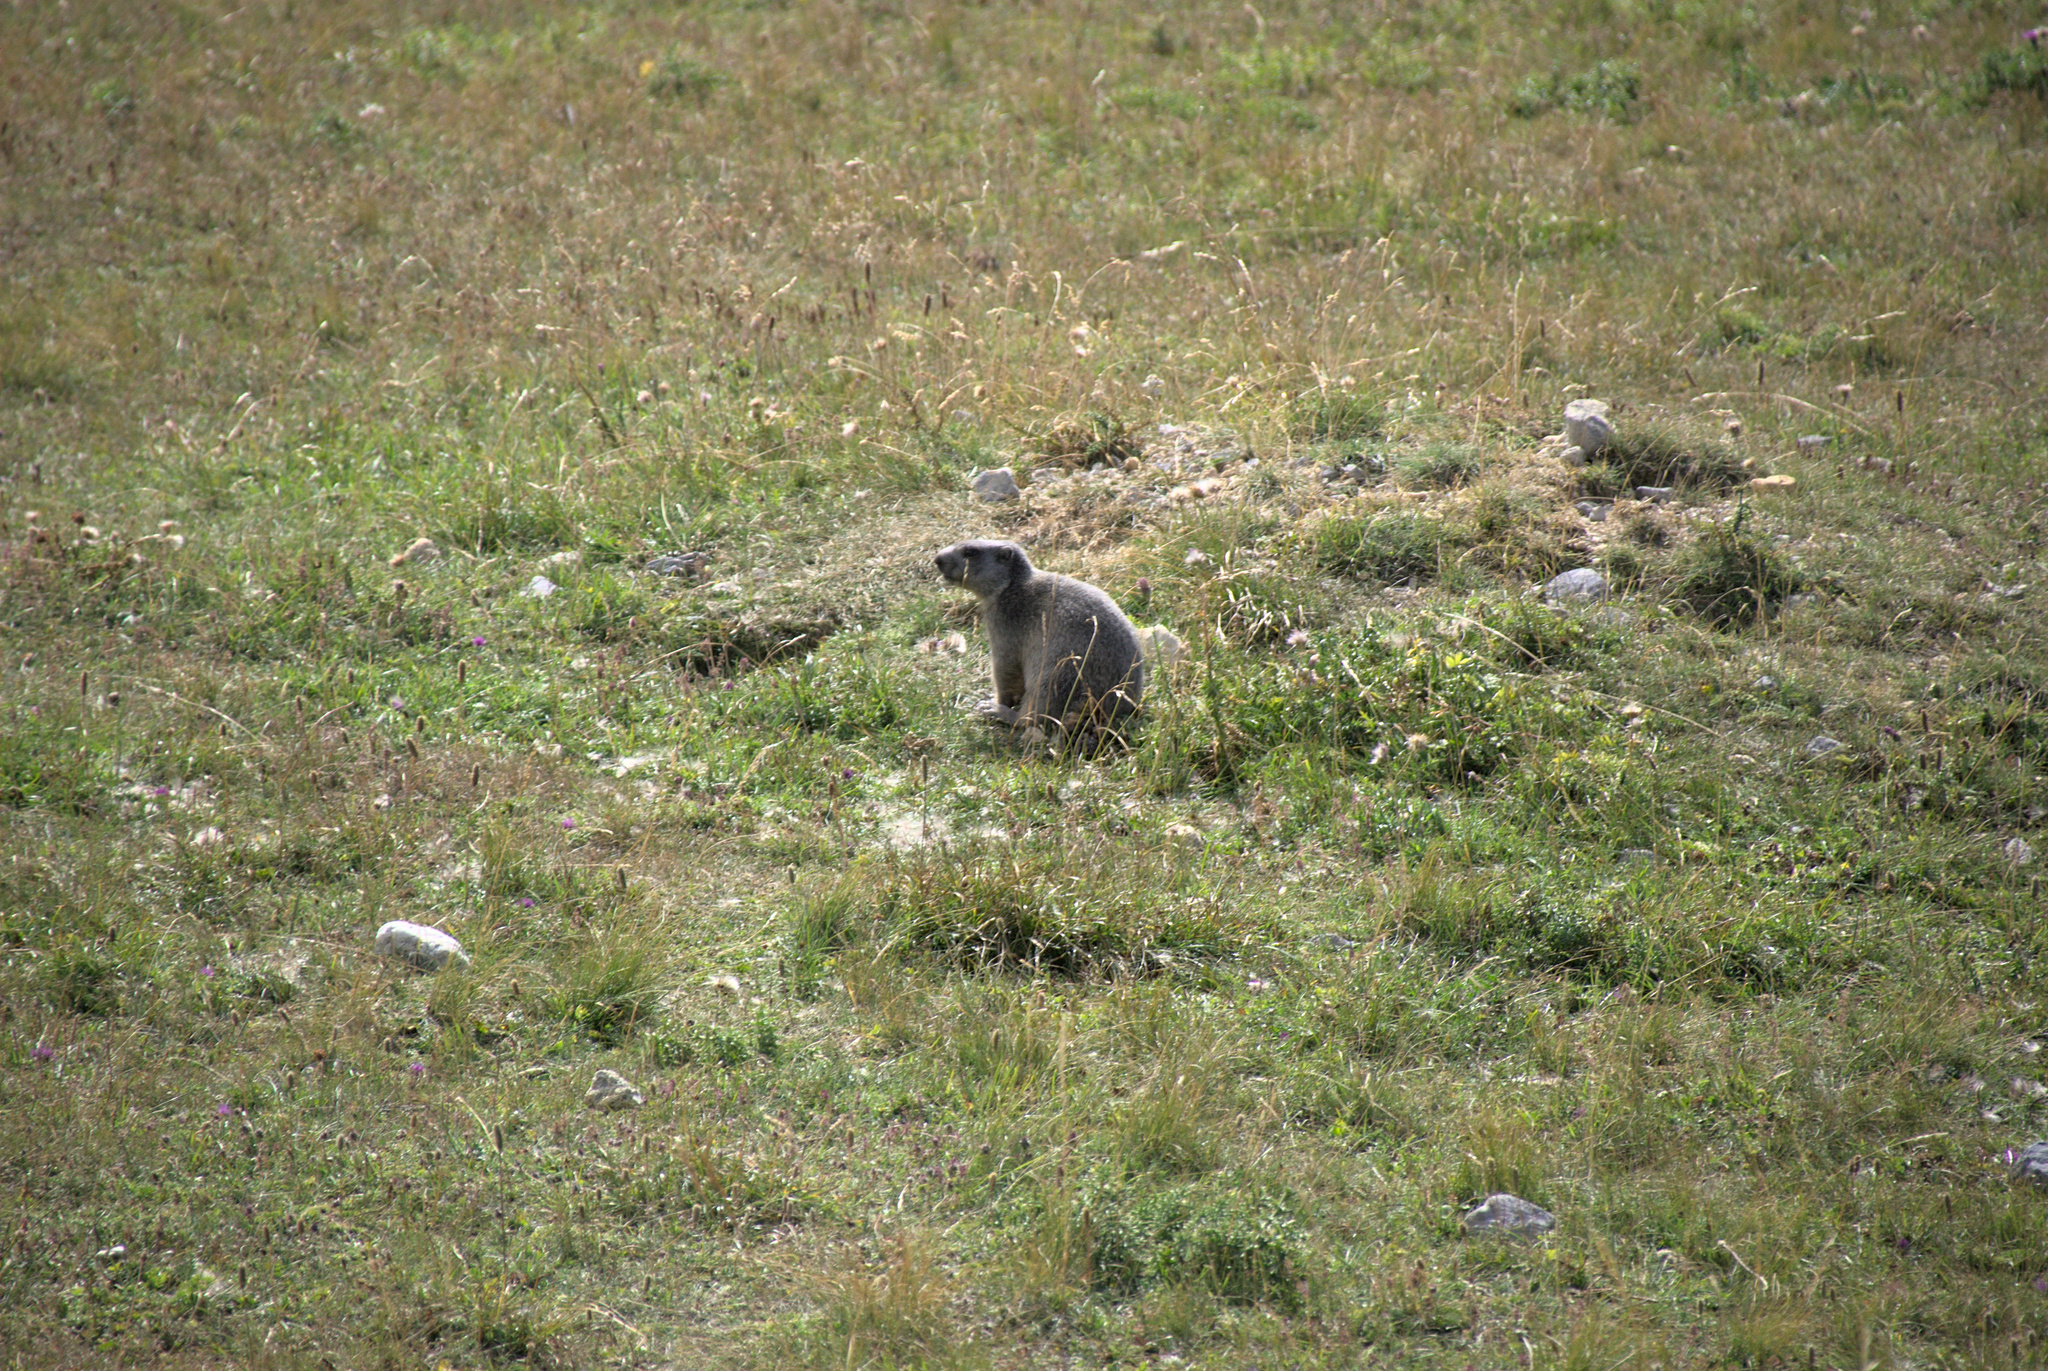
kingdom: Animalia
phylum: Chordata
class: Mammalia
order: Rodentia
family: Sciuridae
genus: Marmota
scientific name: Marmota marmota
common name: Alpine marmot
